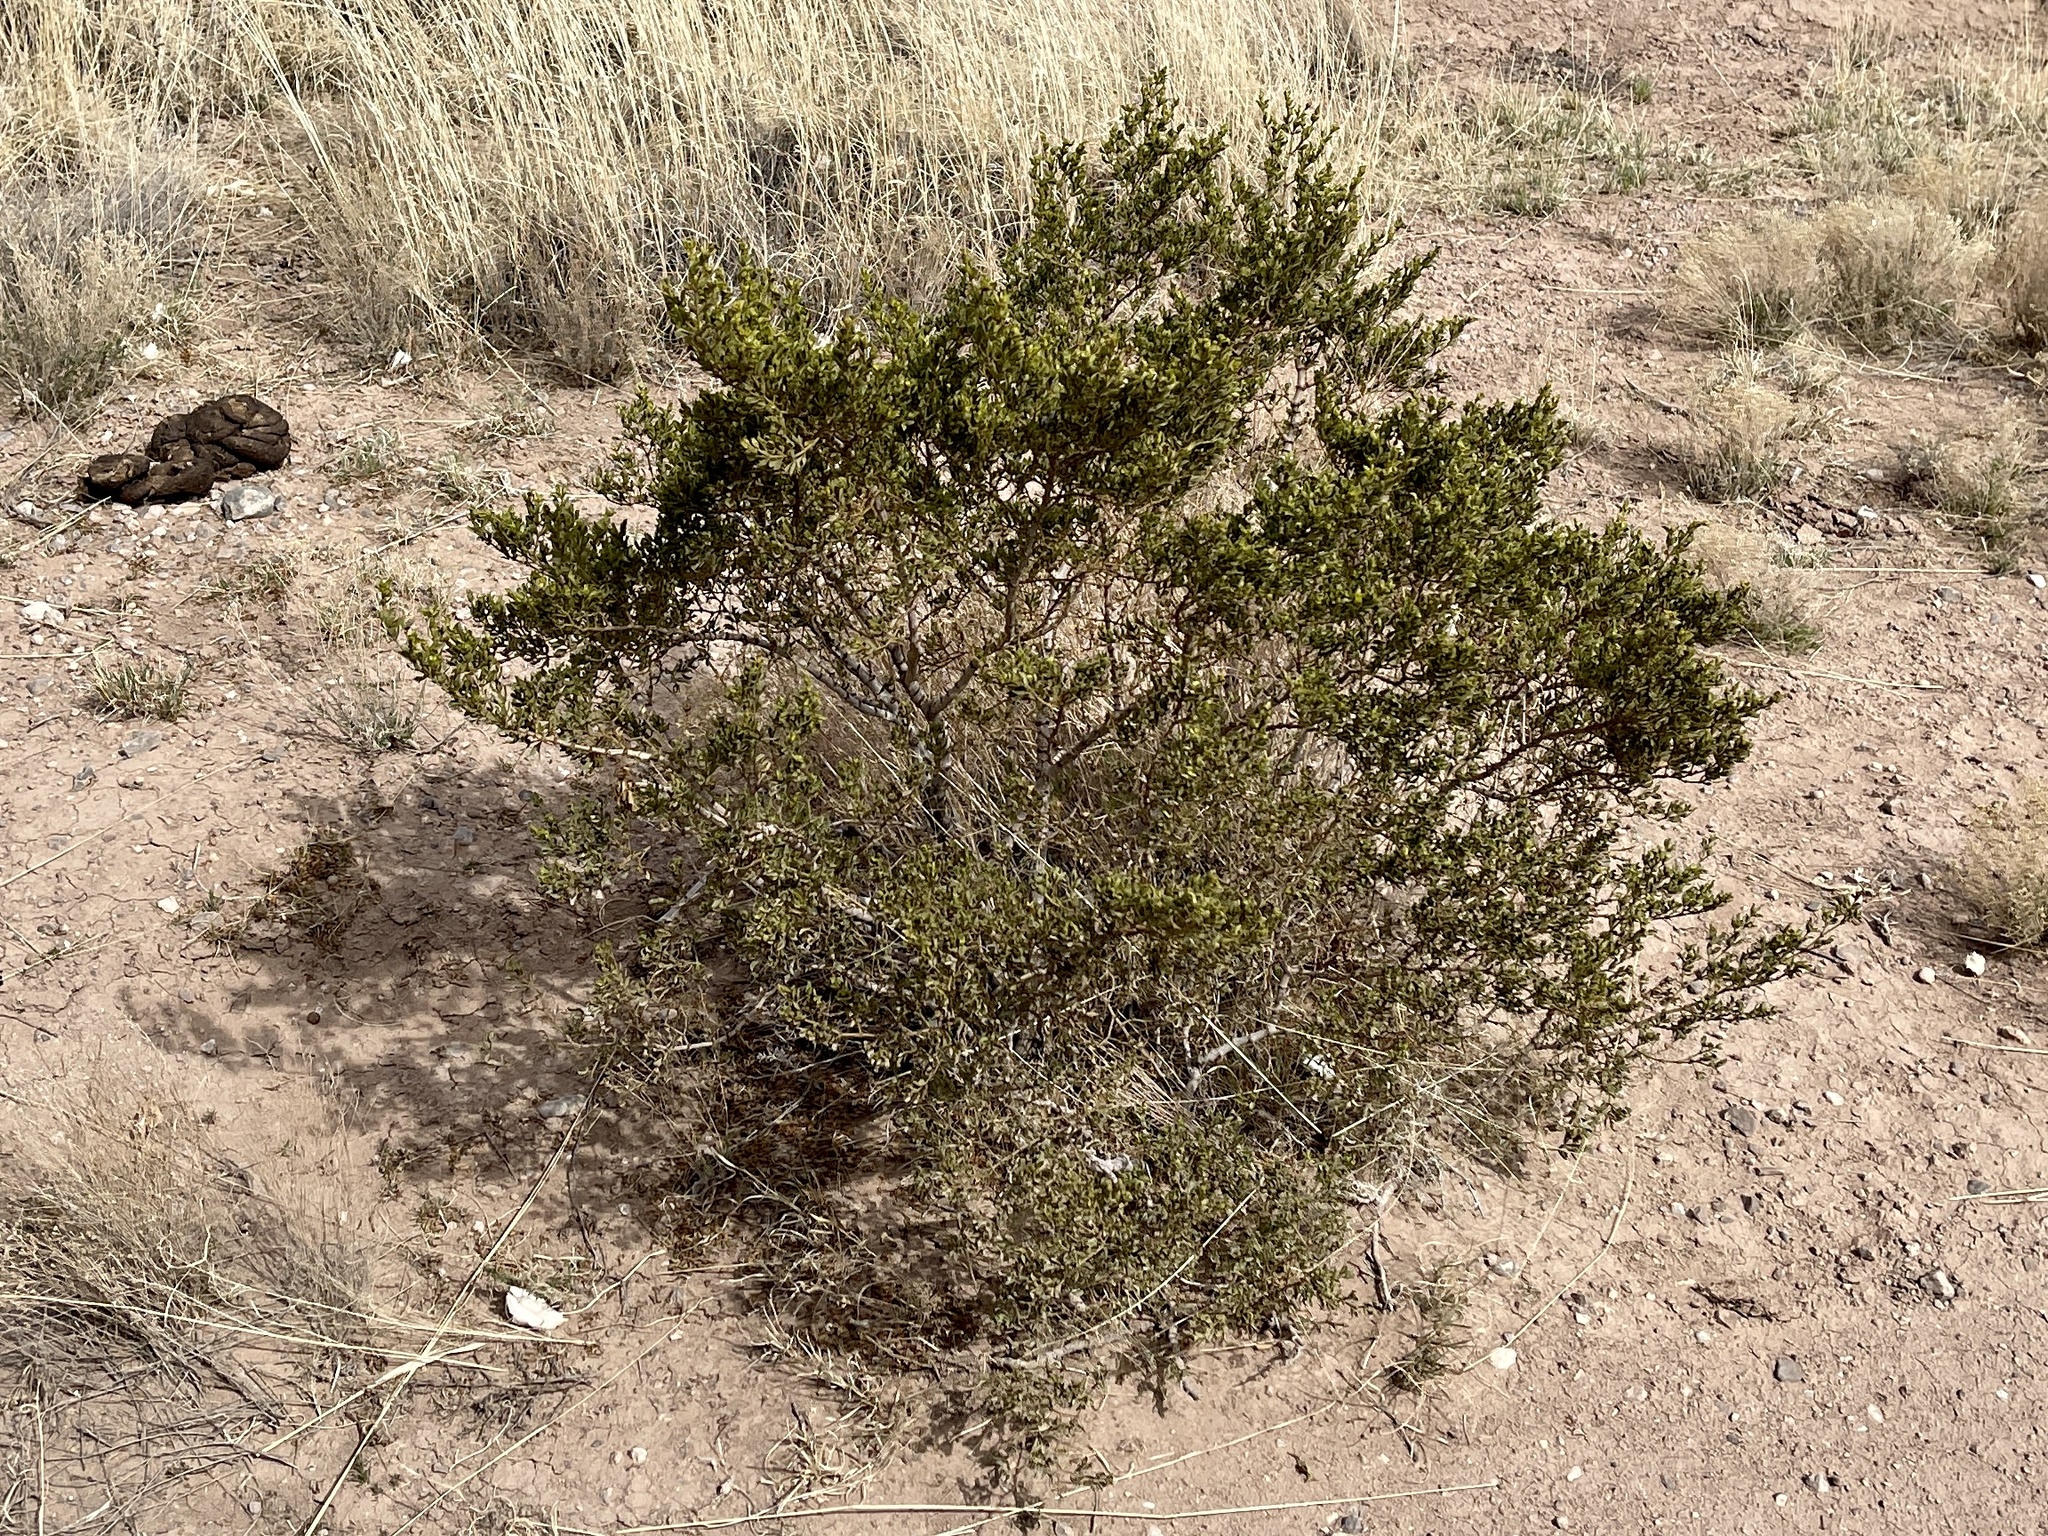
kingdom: Plantae
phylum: Tracheophyta
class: Magnoliopsida
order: Zygophyllales
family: Zygophyllaceae
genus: Larrea
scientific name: Larrea tridentata
